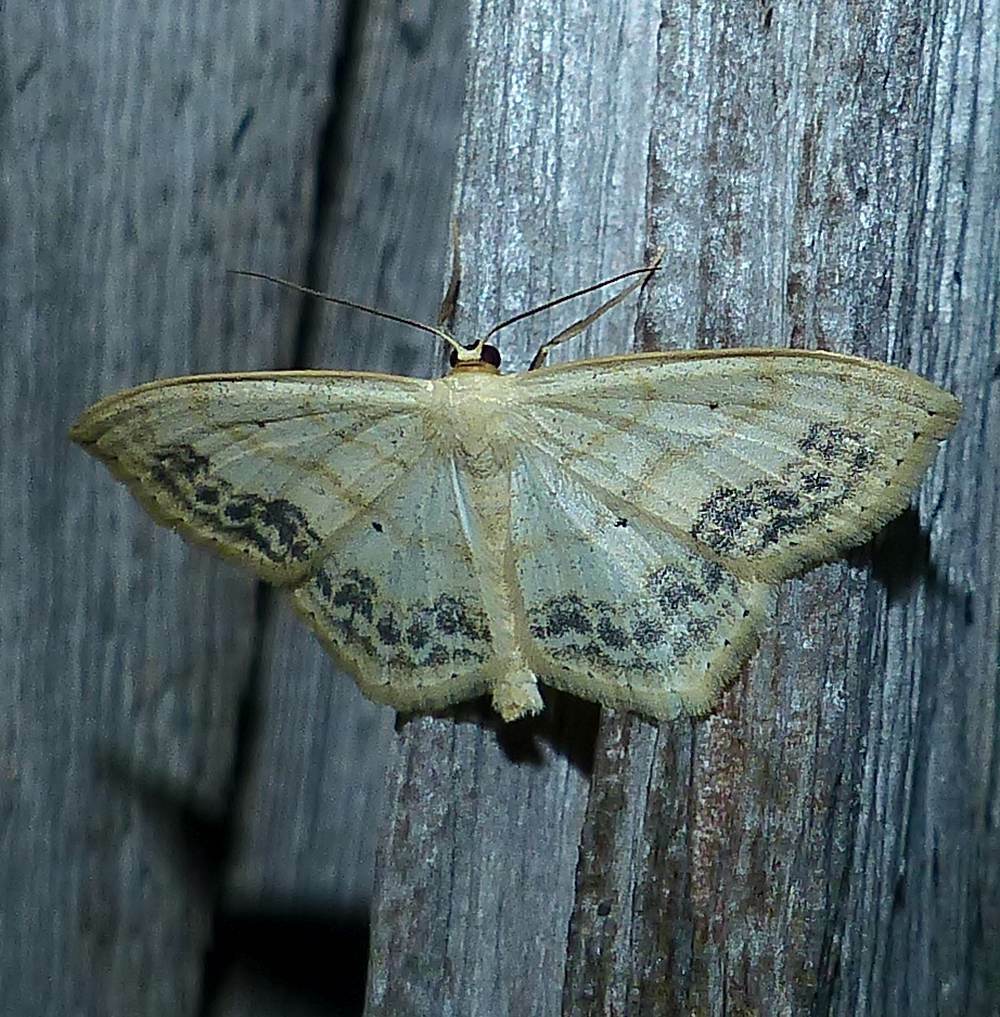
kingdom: Animalia
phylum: Arthropoda
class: Insecta
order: Lepidoptera
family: Geometridae
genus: Scopula
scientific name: Scopula limboundata
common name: Large lace border
